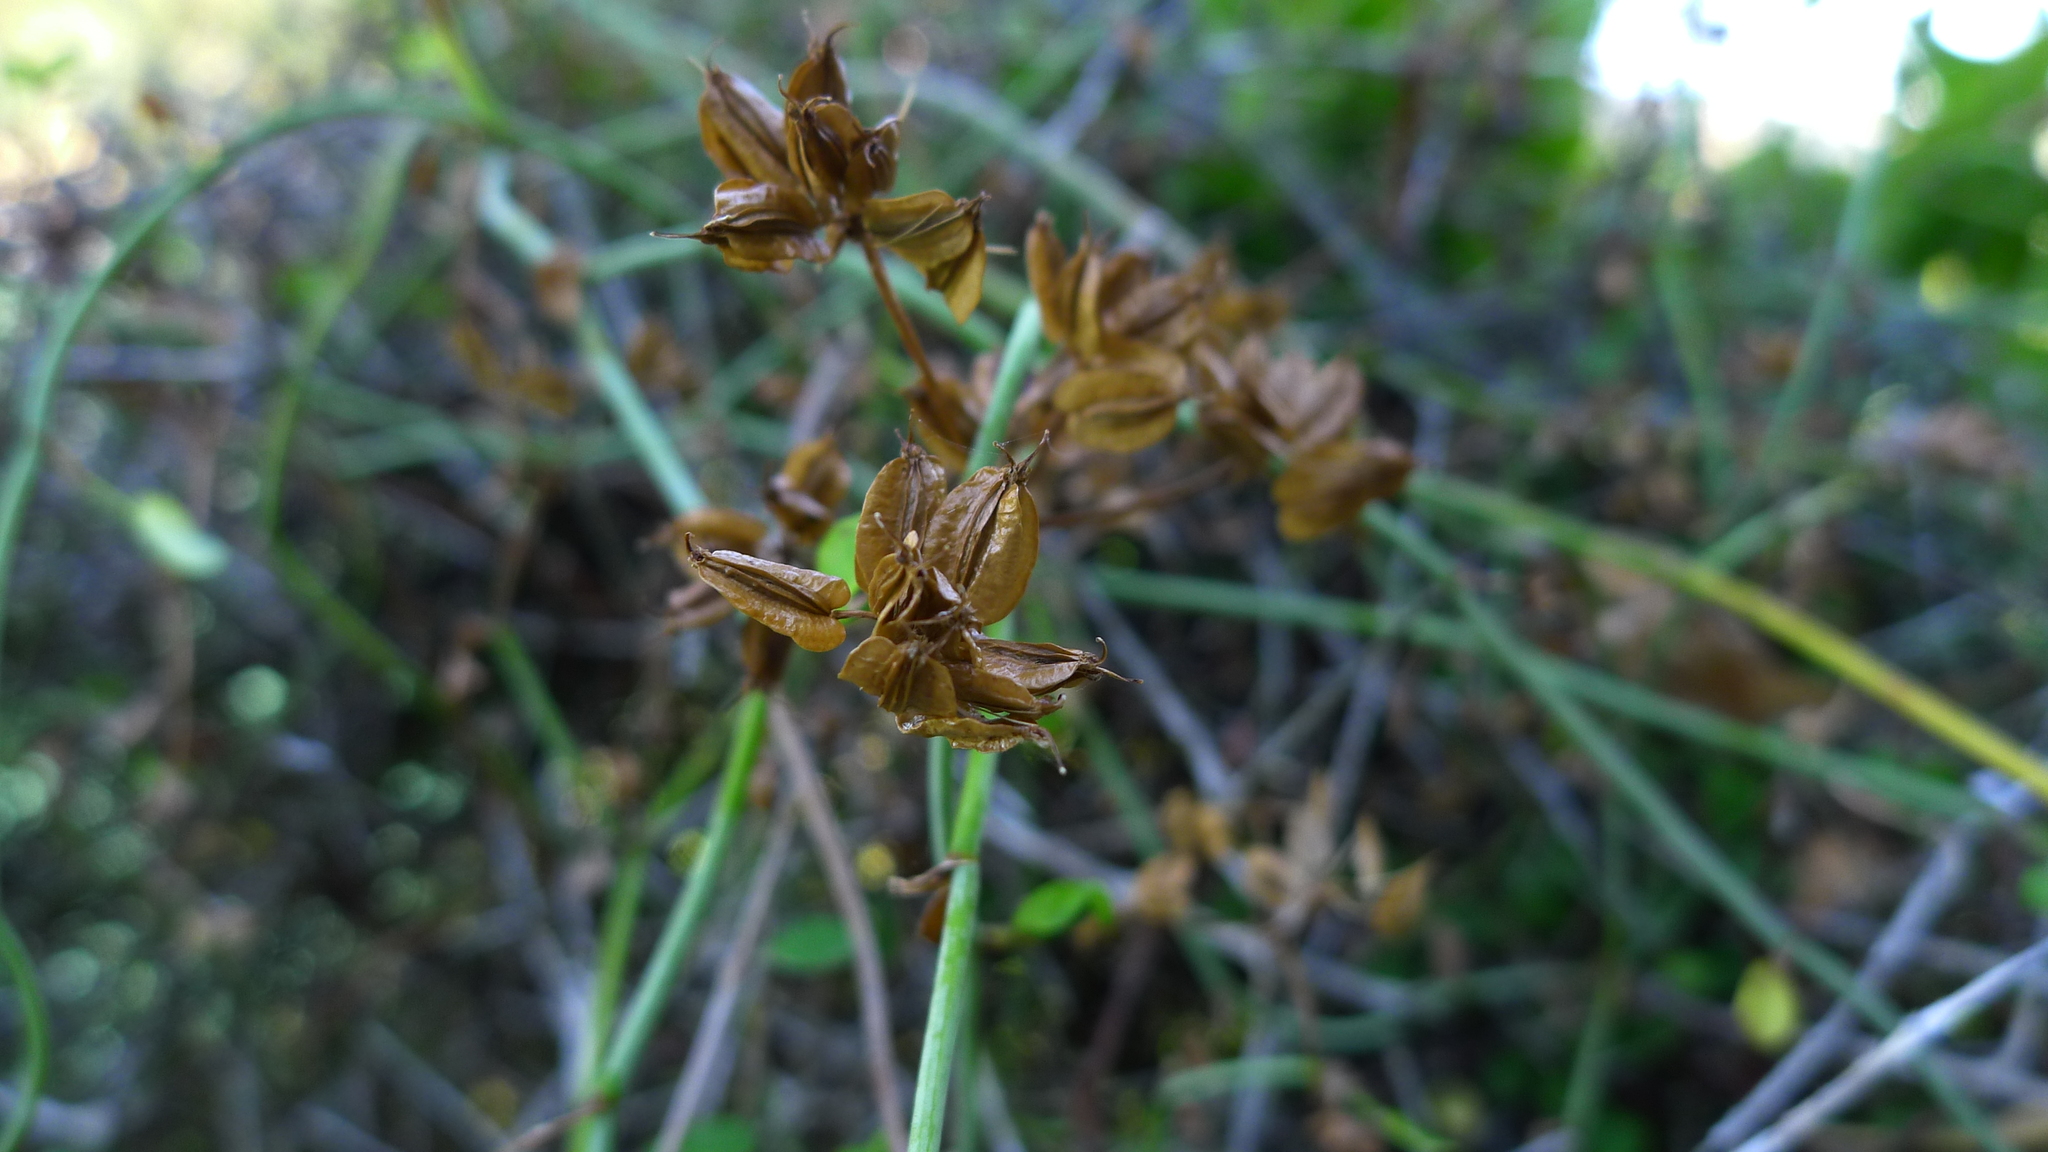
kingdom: Plantae
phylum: Tracheophyta
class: Magnoliopsida
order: Apiales
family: Apiaceae
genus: Scandia
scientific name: Scandia geniculata
